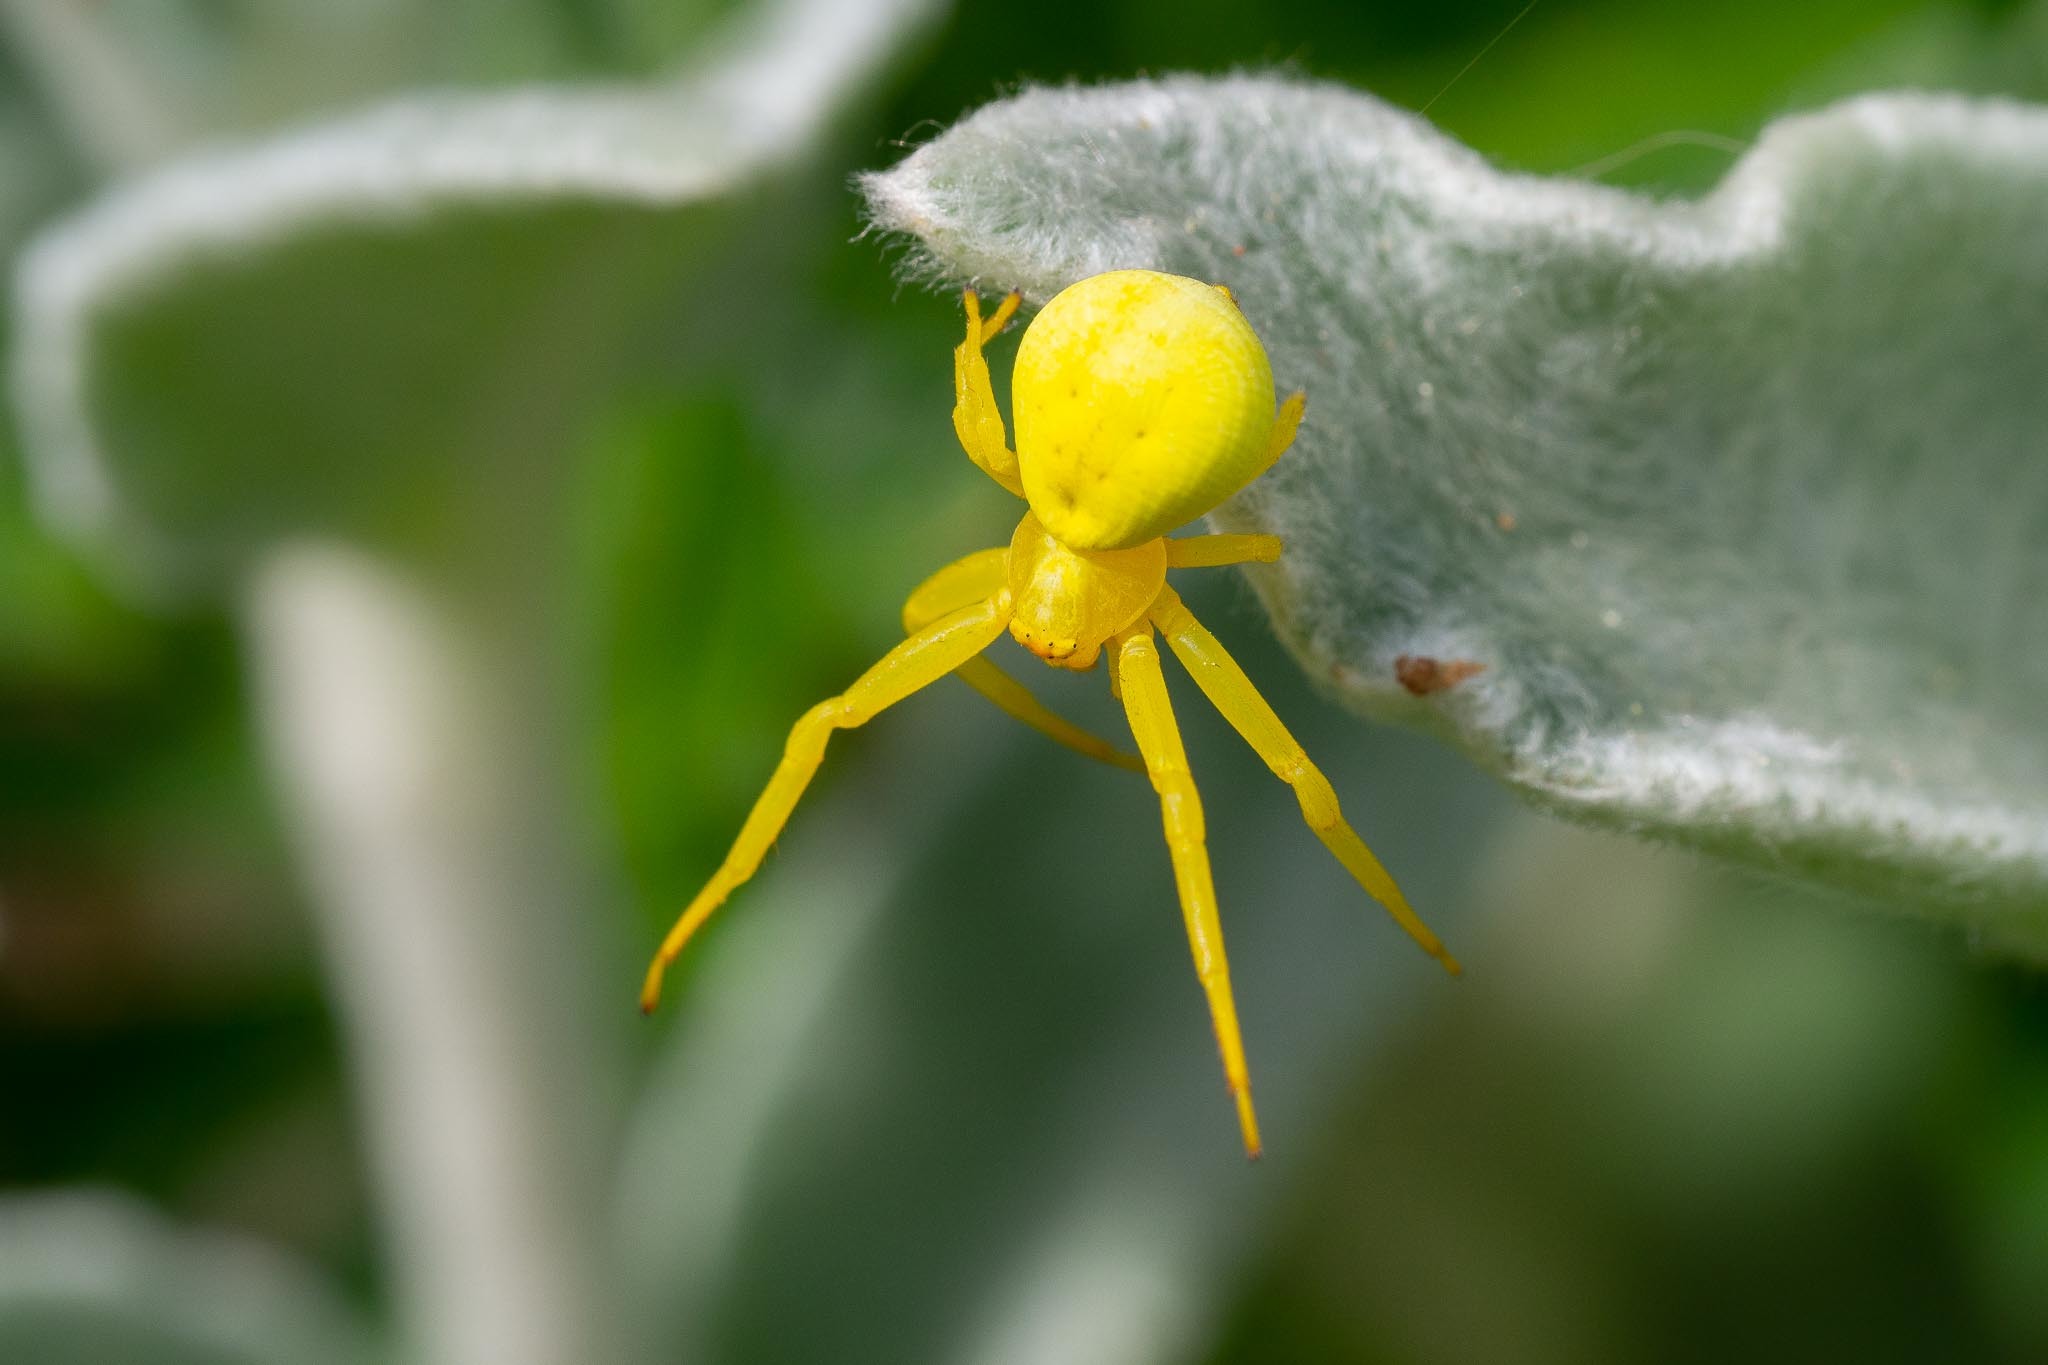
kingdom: Animalia
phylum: Arthropoda
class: Arachnida
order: Araneae
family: Thomisidae
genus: Misumena
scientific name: Misumena vatia
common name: Goldenrod crab spider
